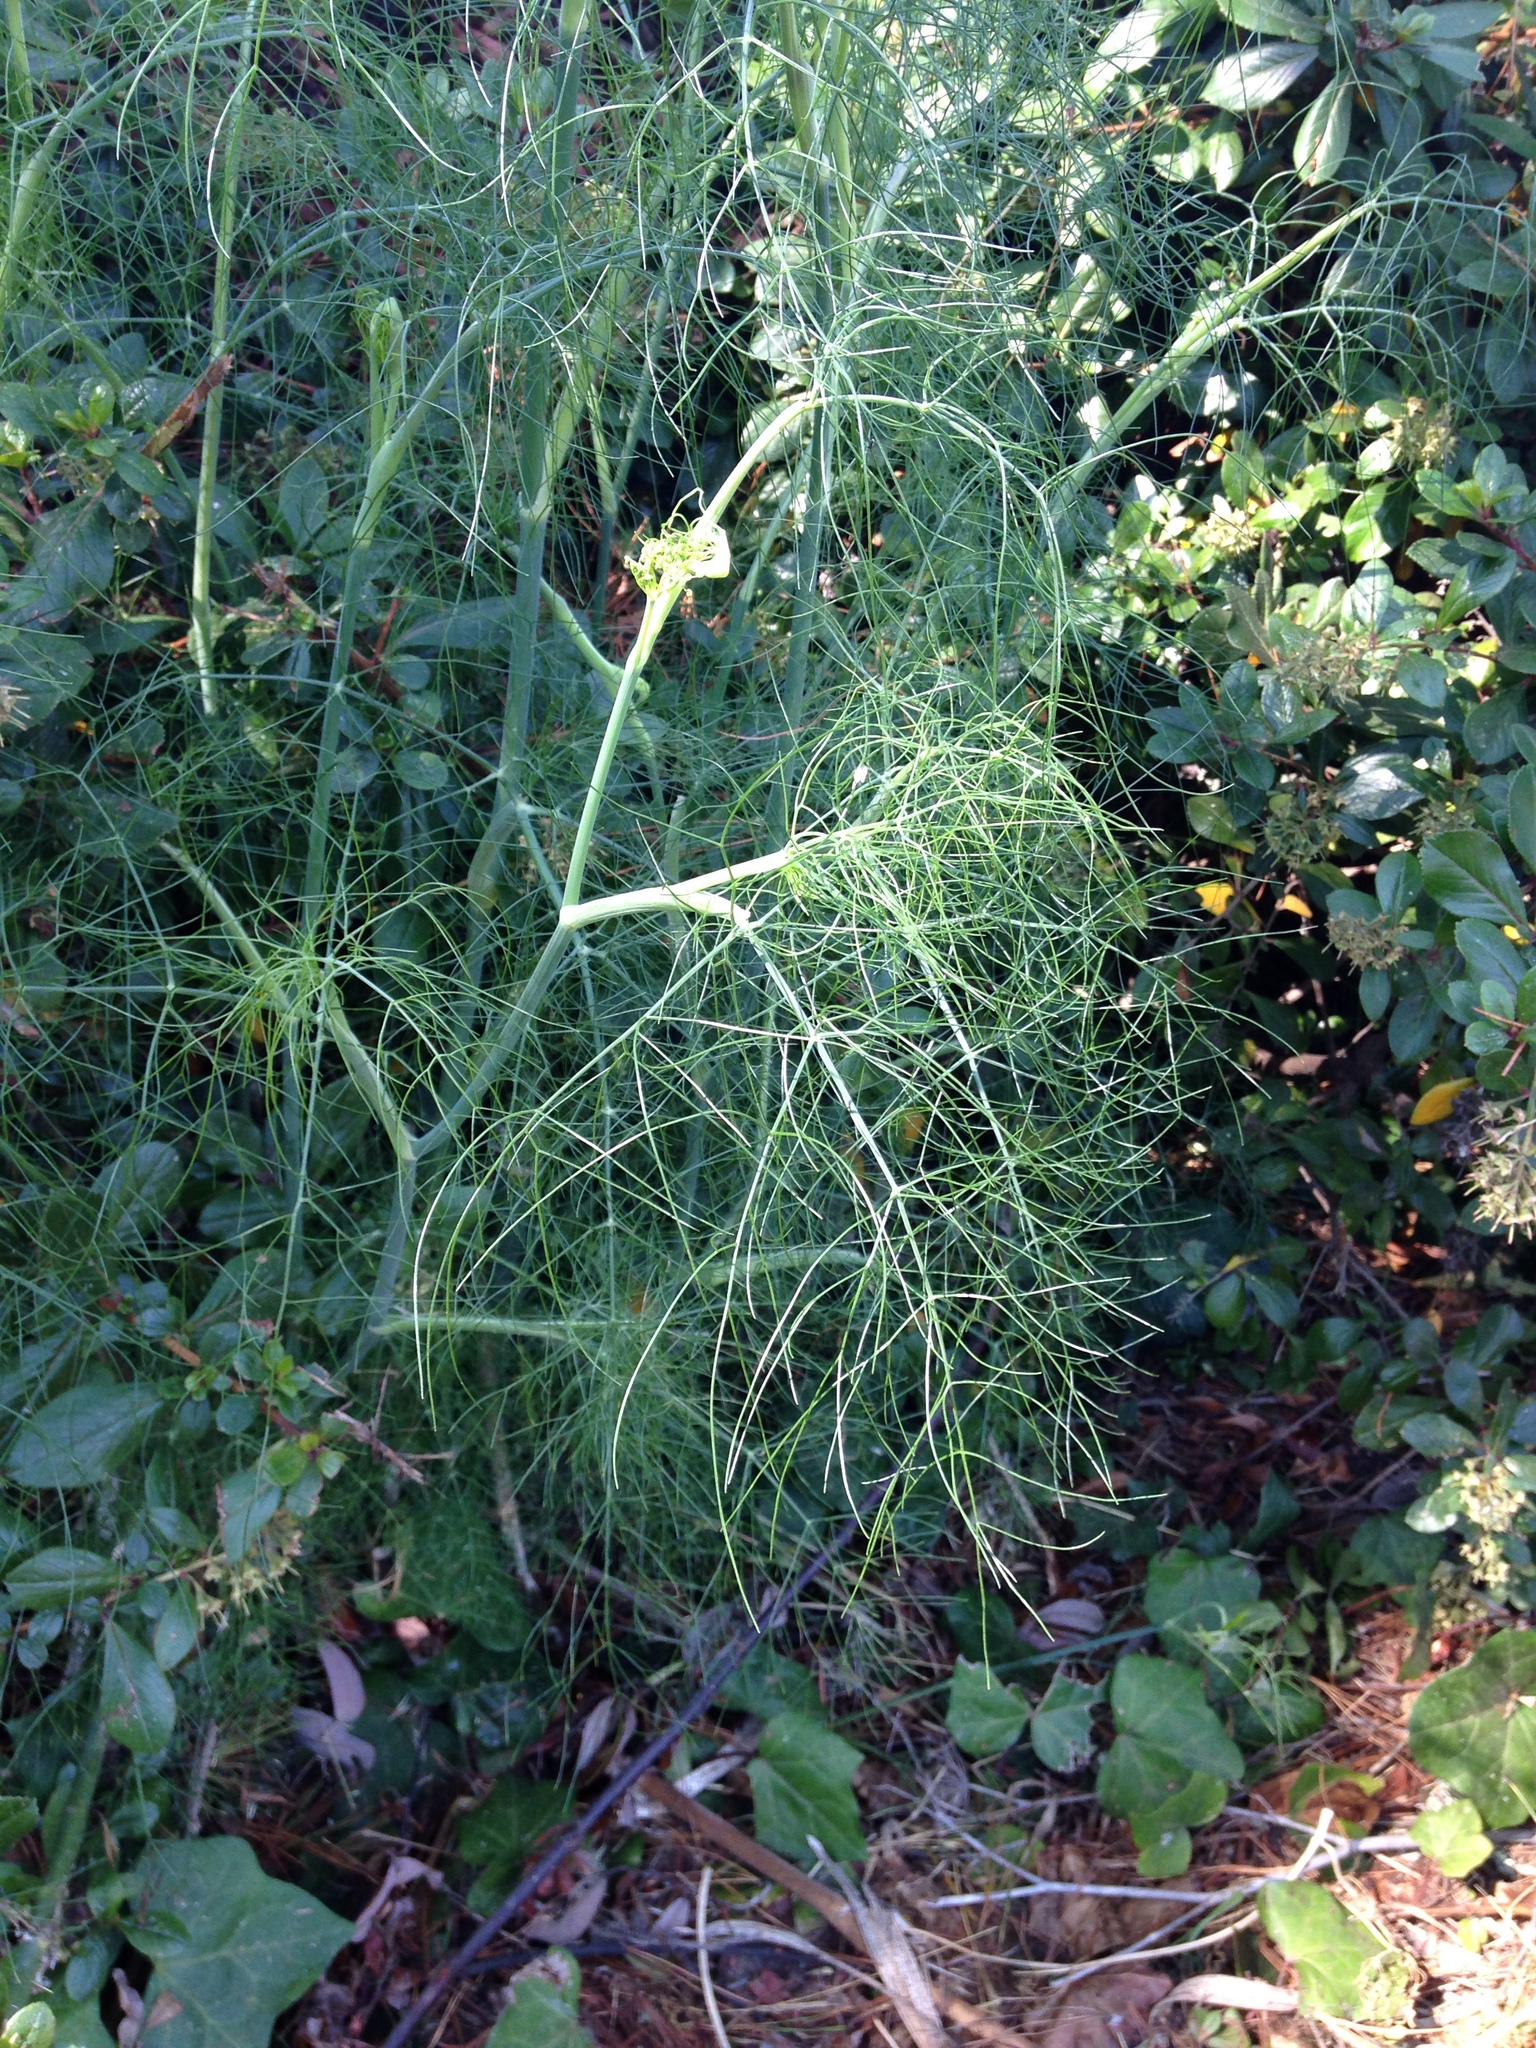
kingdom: Plantae
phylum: Tracheophyta
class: Magnoliopsida
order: Apiales
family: Apiaceae
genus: Foeniculum
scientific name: Foeniculum vulgare
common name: Fennel
